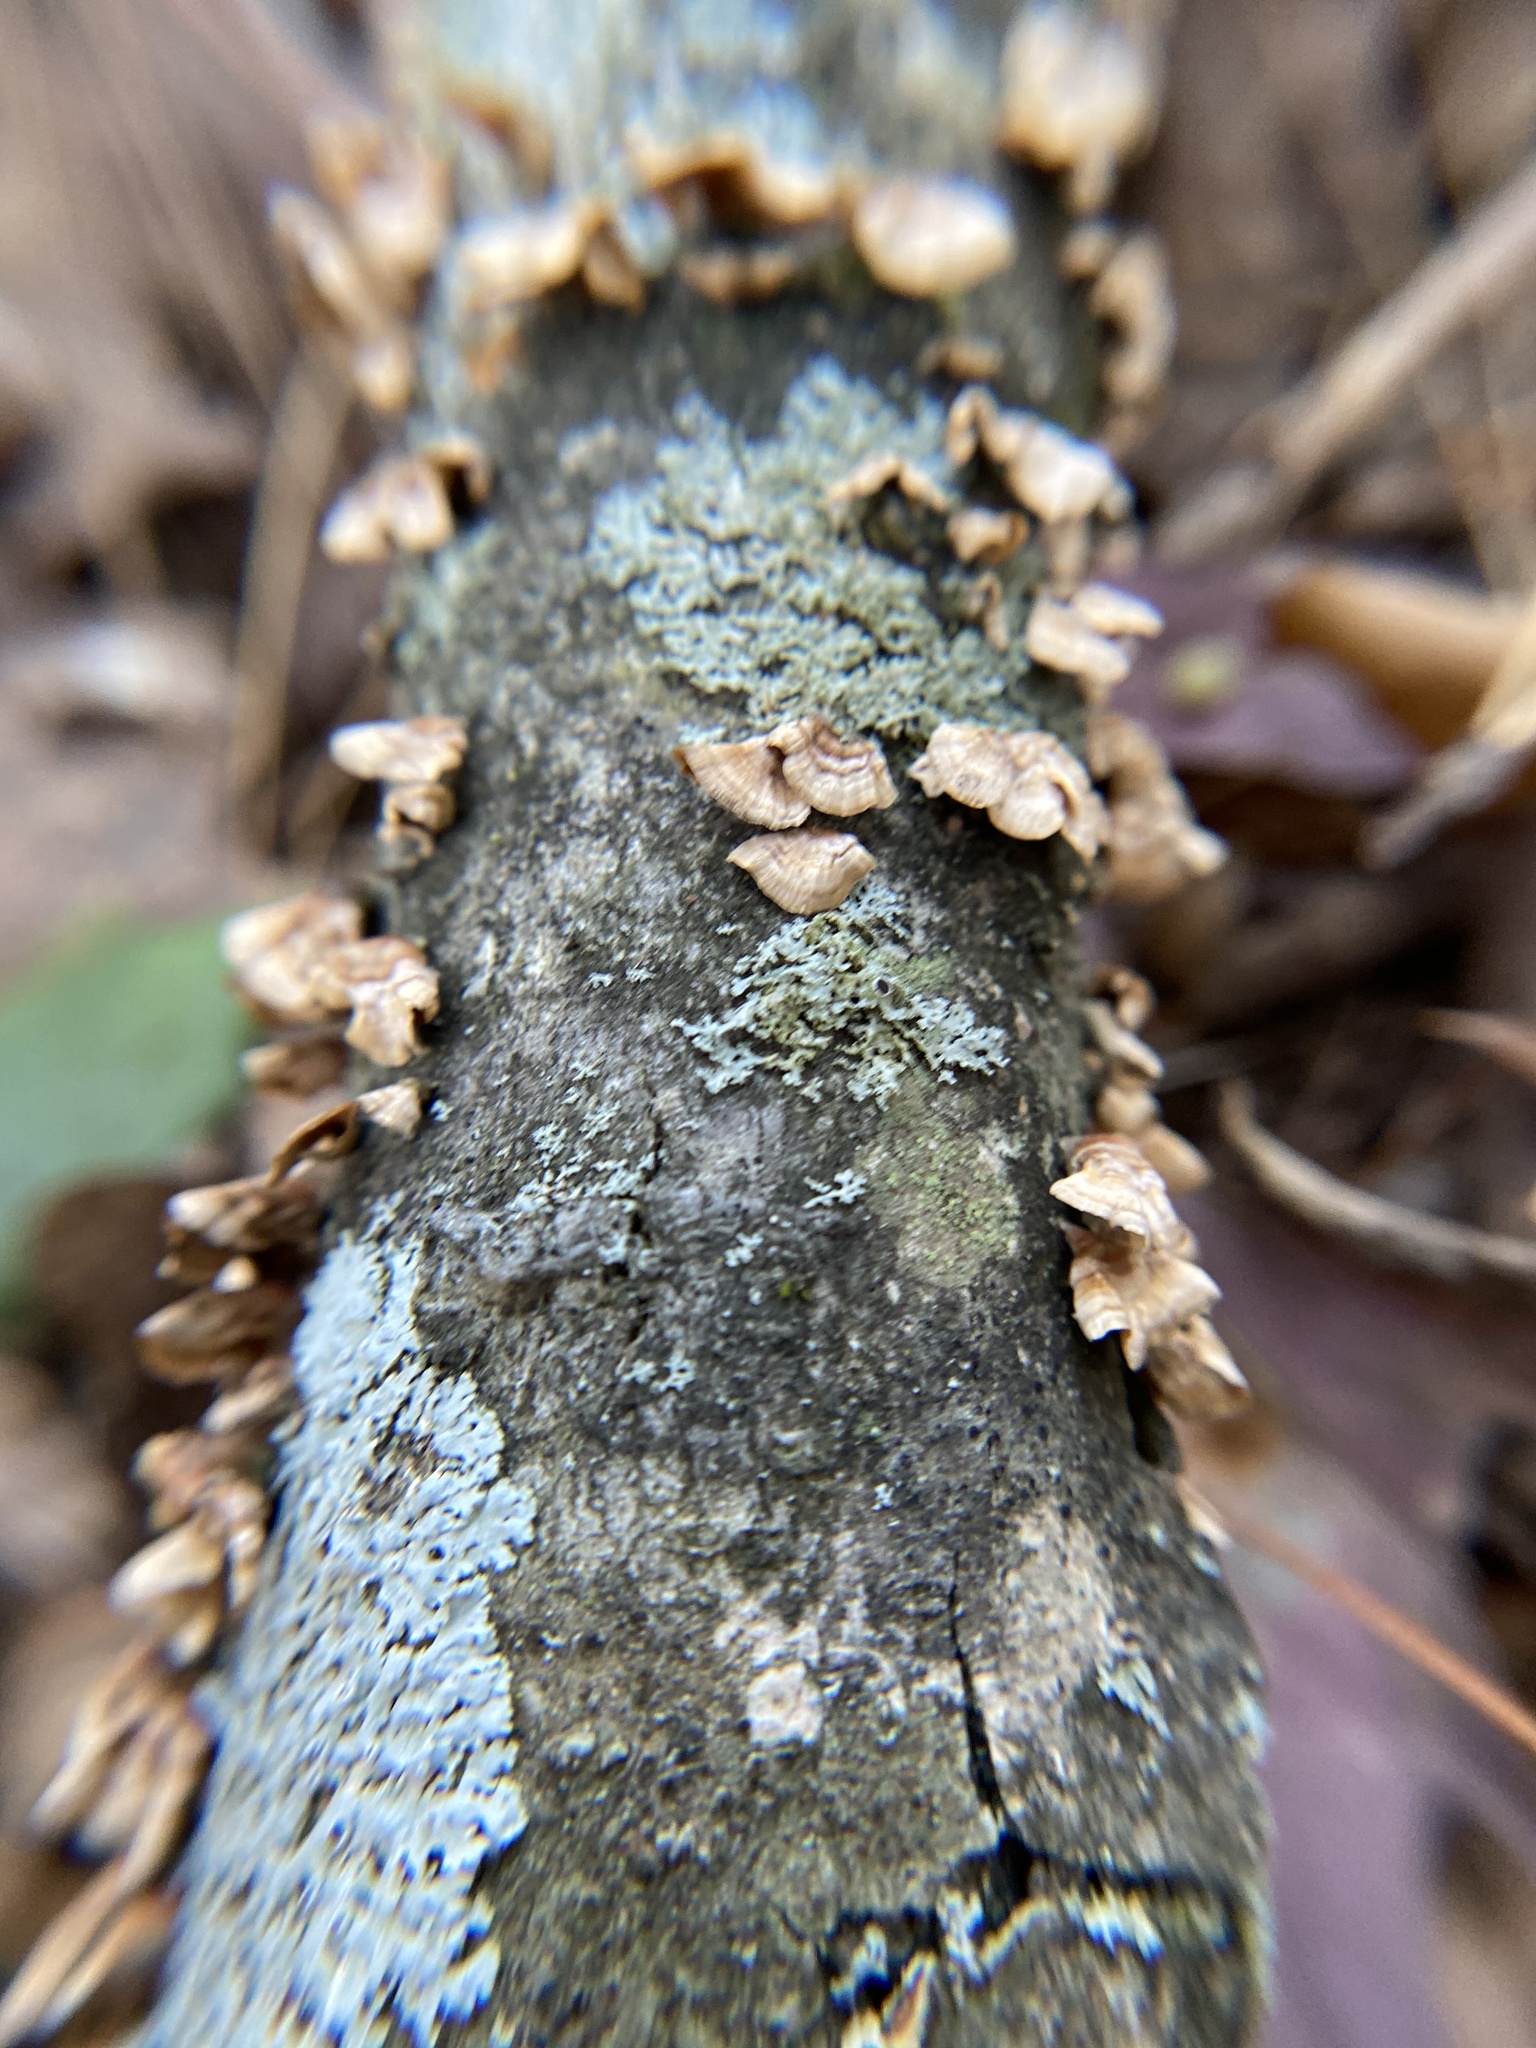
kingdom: Fungi
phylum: Basidiomycota
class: Agaricomycetes
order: Russulales
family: Stereaceae
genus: Stereum
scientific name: Stereum complicatum
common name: Crowded parchment
